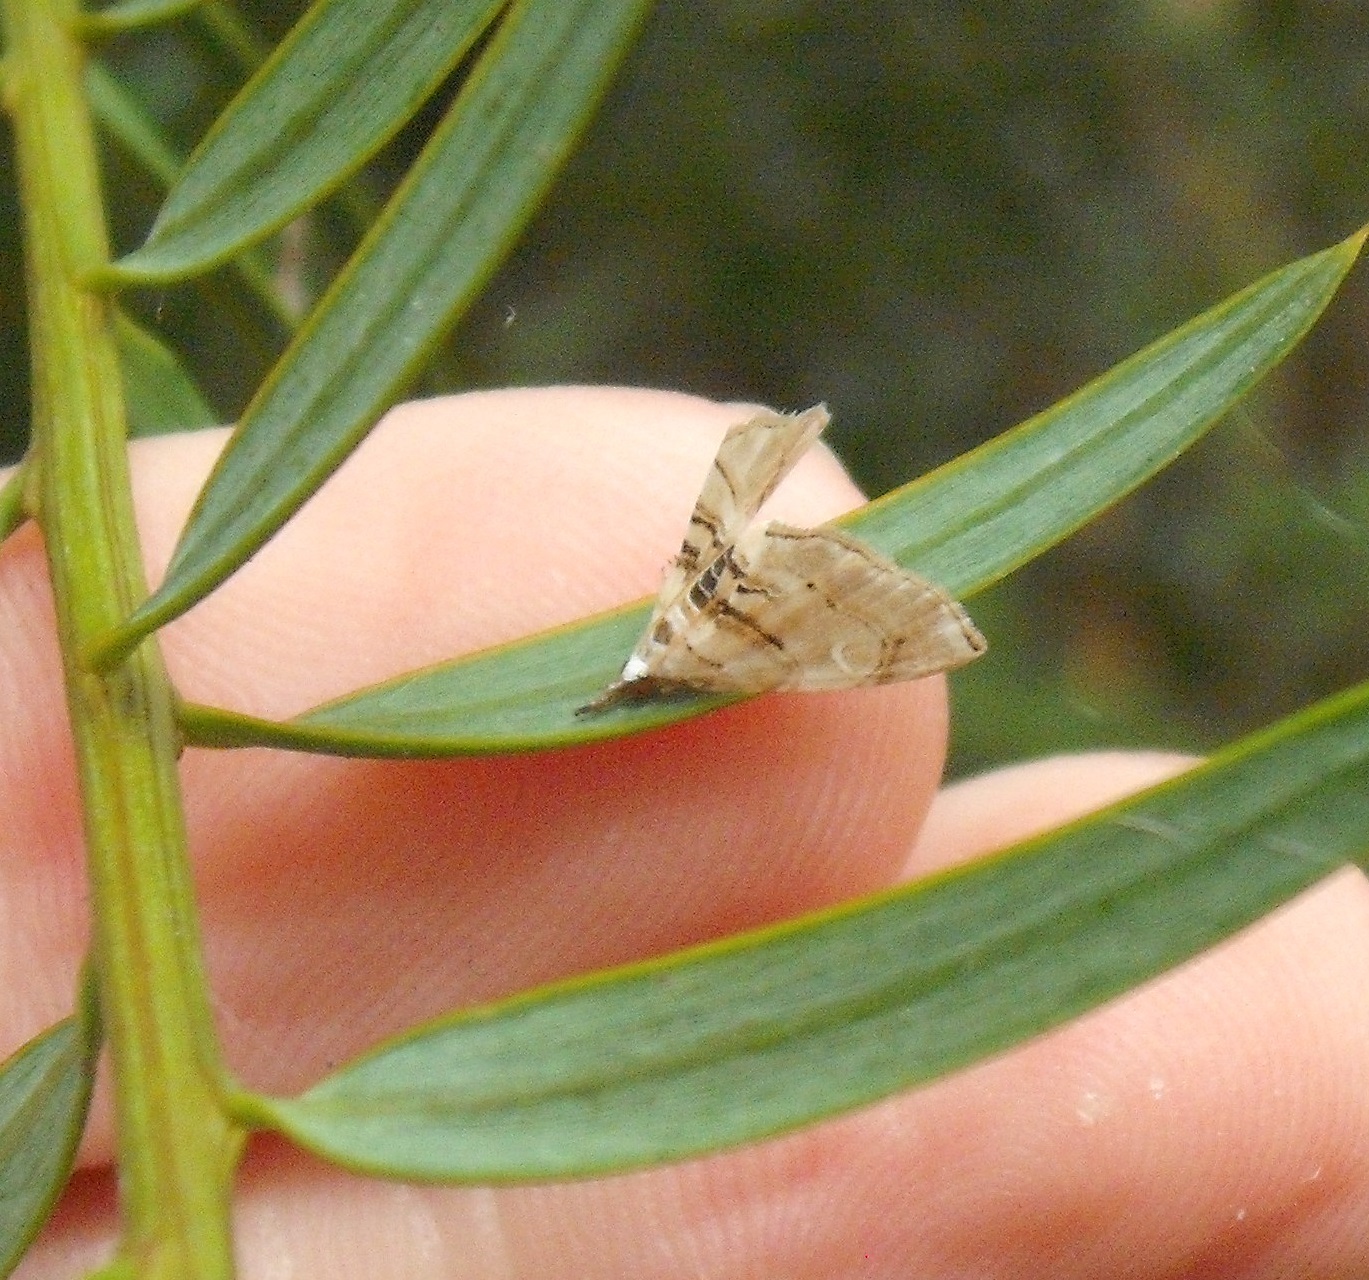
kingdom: Animalia
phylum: Arthropoda
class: Insecta
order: Lepidoptera
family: Crambidae
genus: Trichophysetis
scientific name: Trichophysetis
